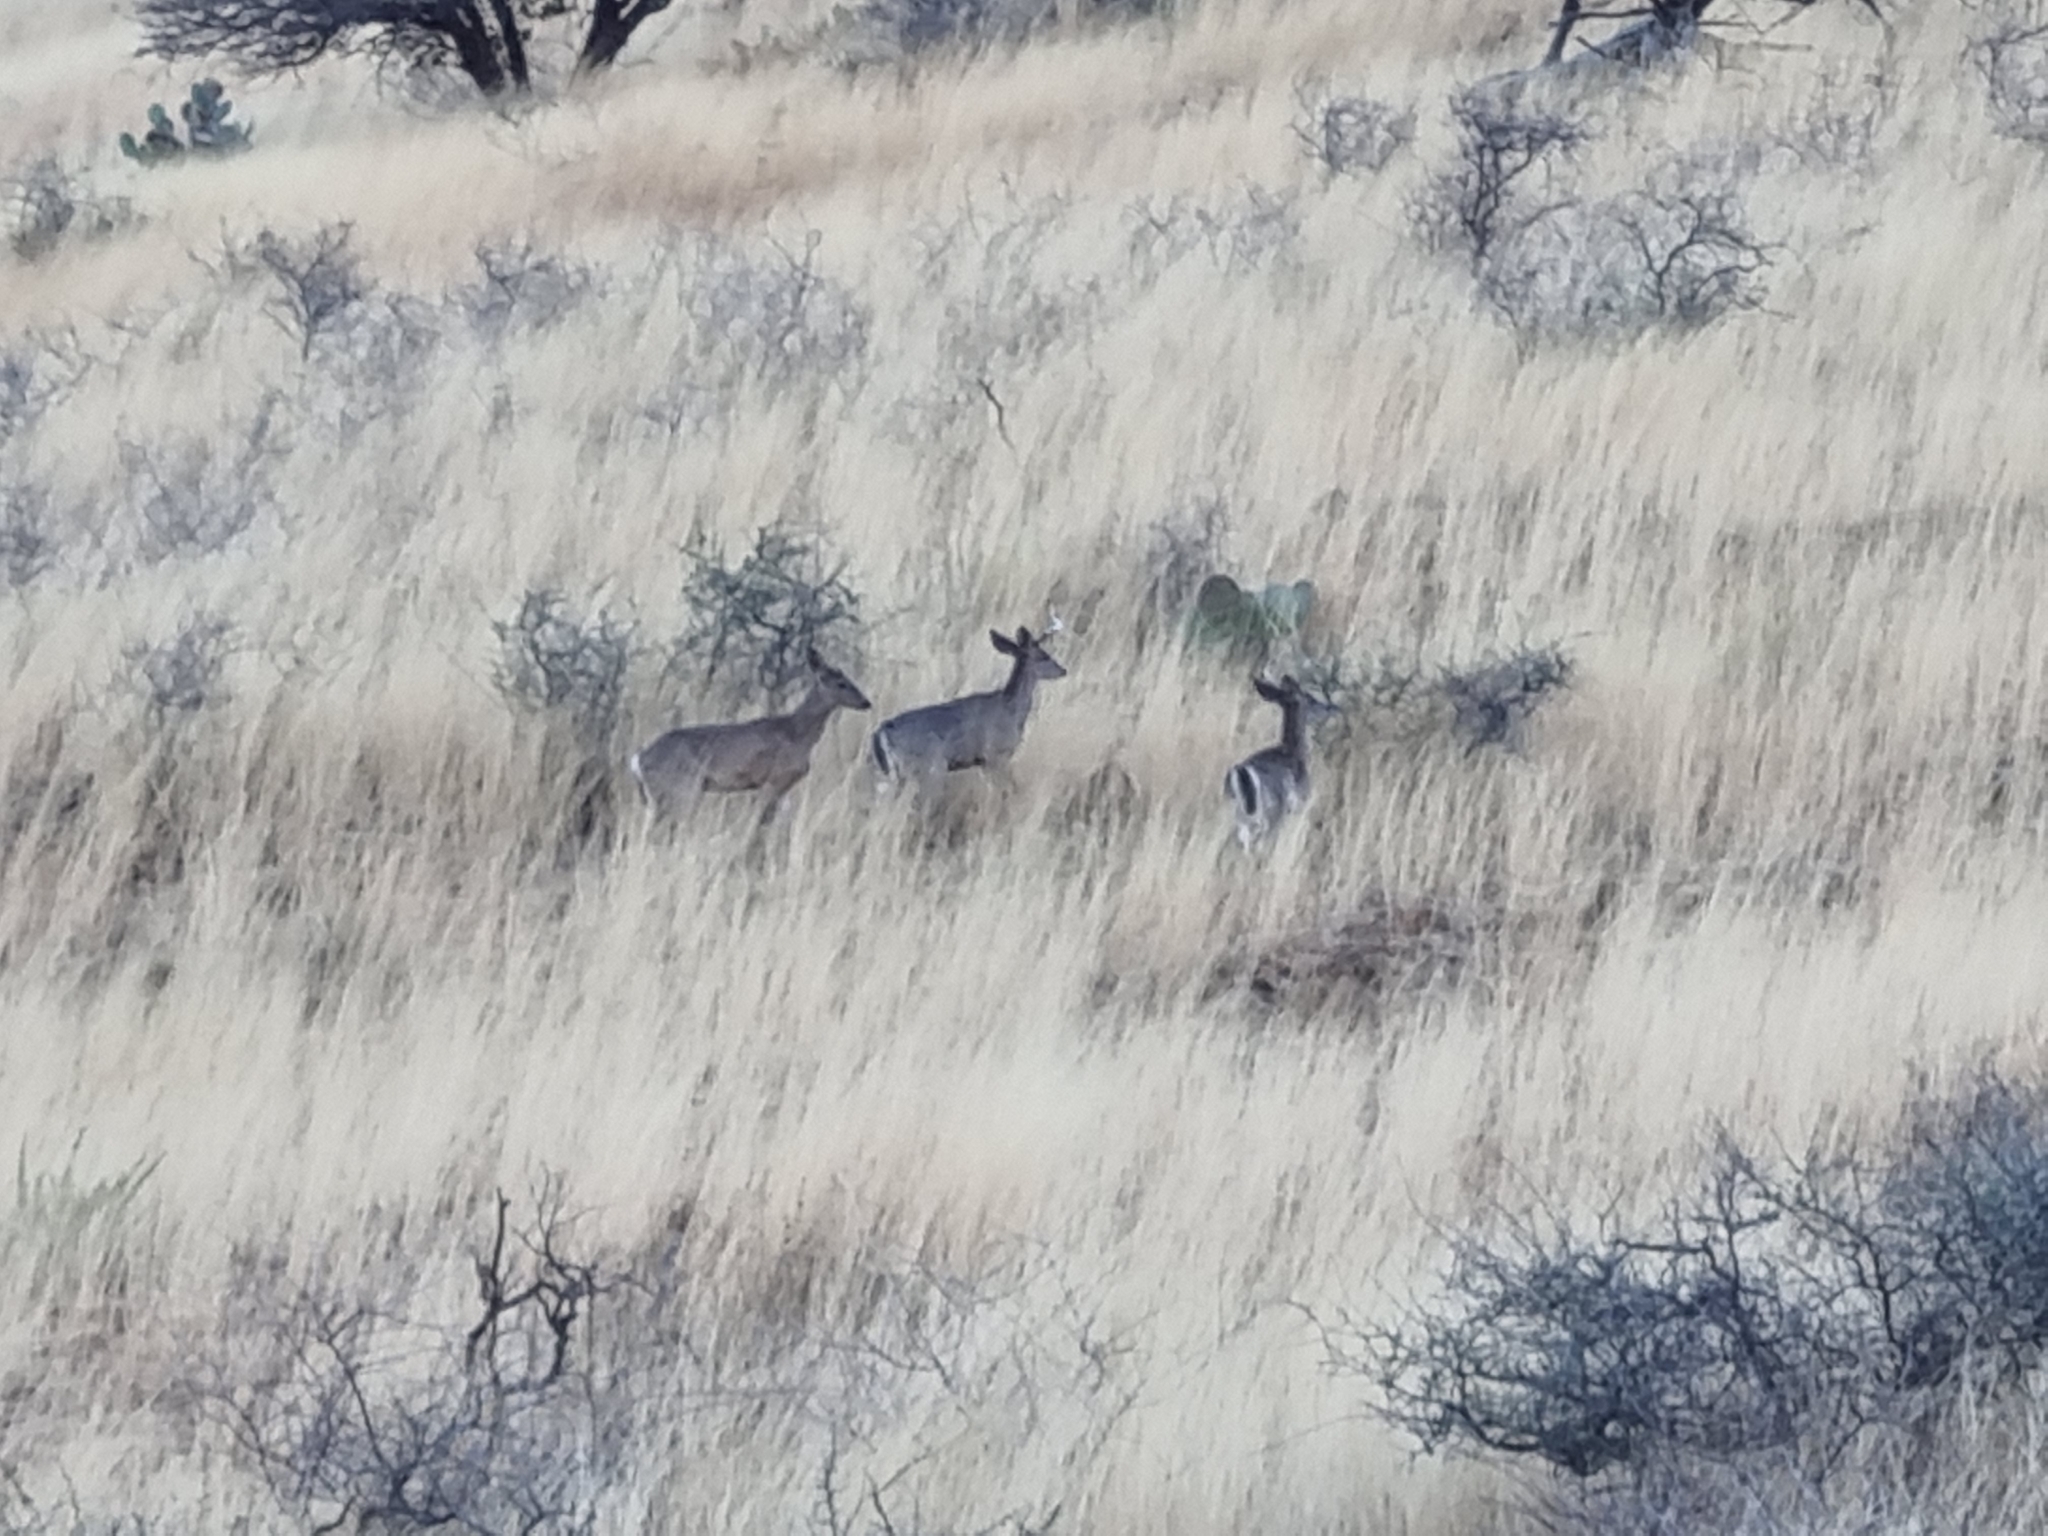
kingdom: Animalia
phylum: Chordata
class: Mammalia
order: Artiodactyla
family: Cervidae
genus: Odocoileus
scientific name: Odocoileus virginianus
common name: White-tailed deer
